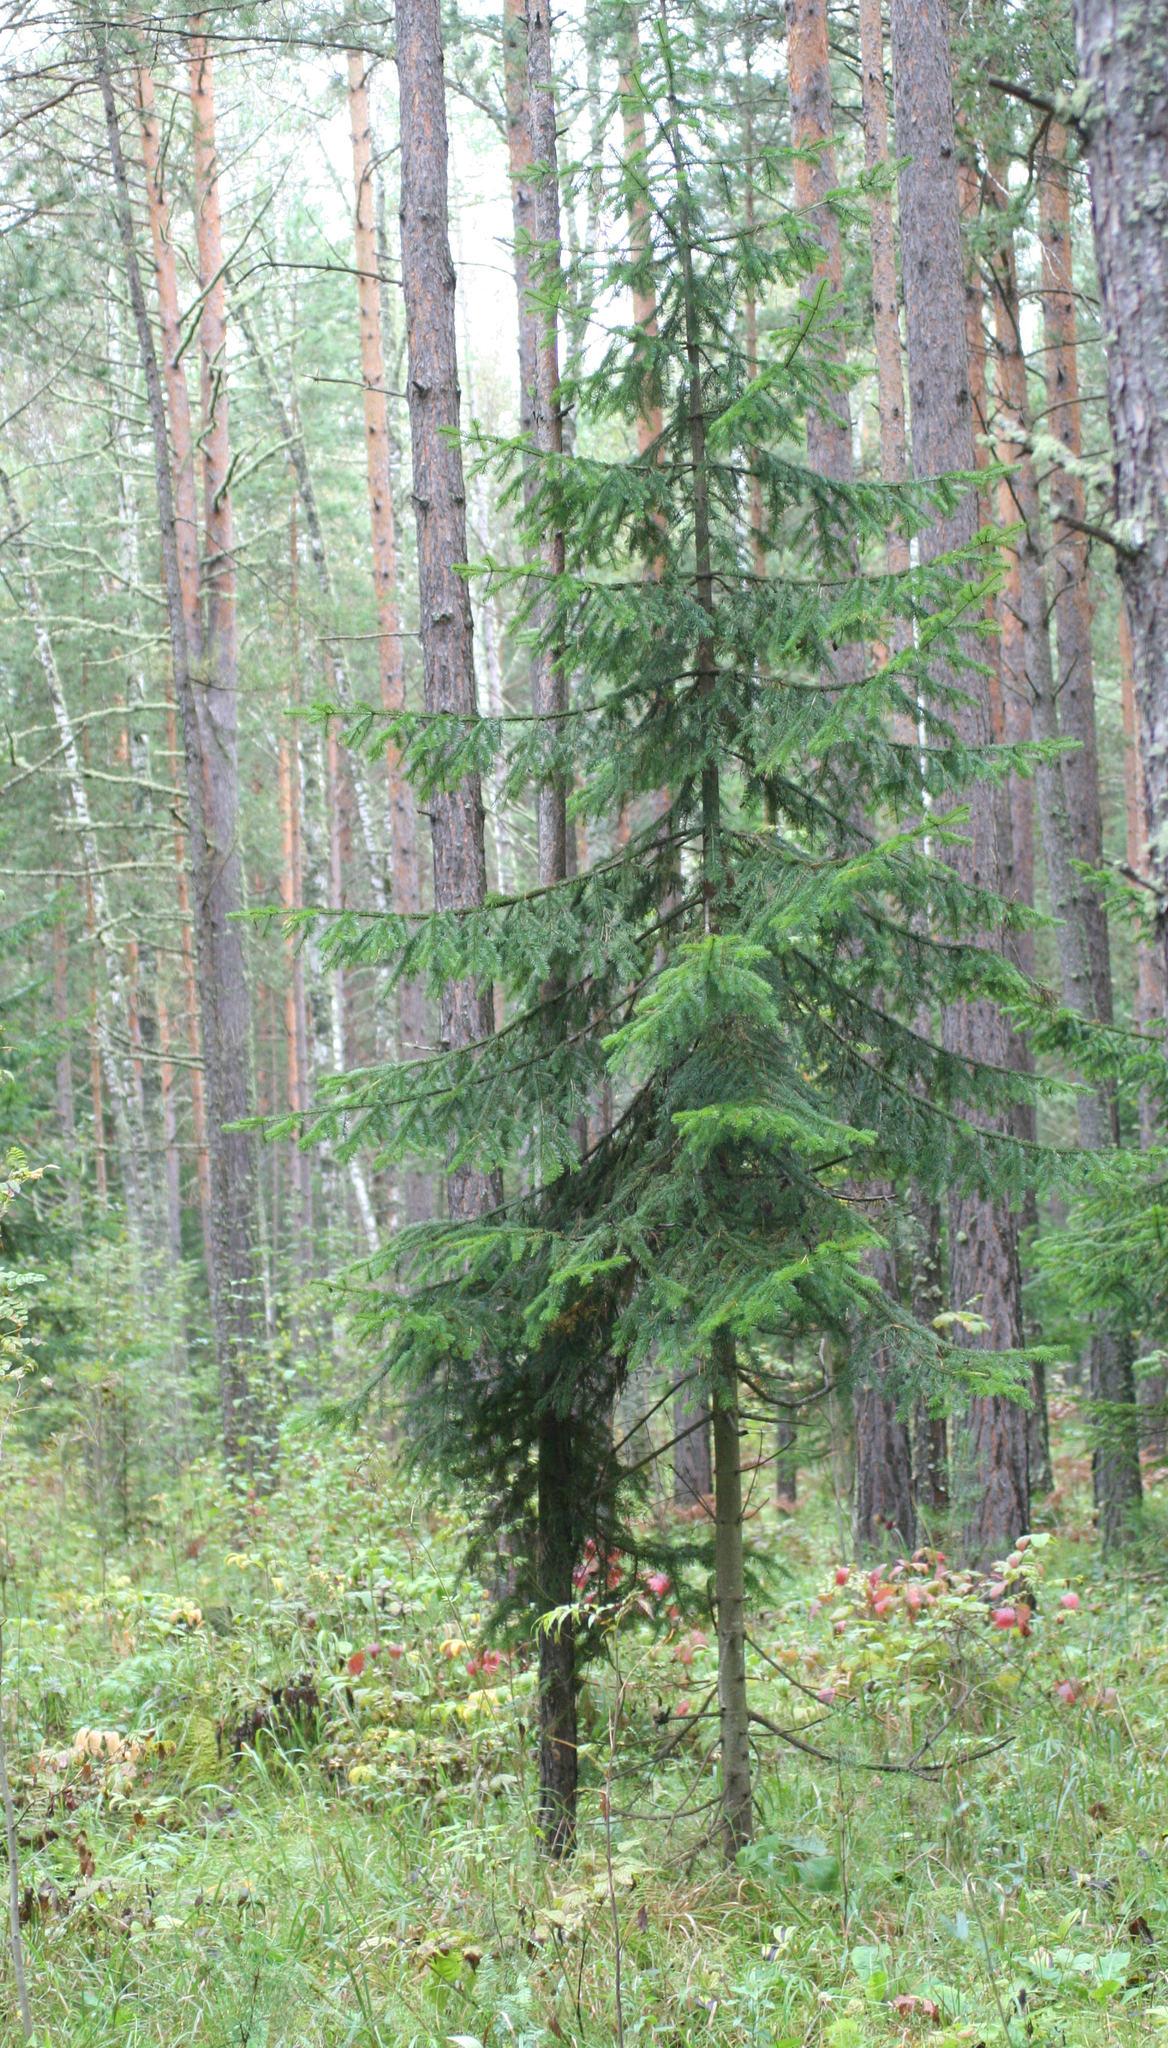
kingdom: Plantae
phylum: Tracheophyta
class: Pinopsida
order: Pinales
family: Pinaceae
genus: Abies
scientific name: Abies sibirica
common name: Siberian fir
